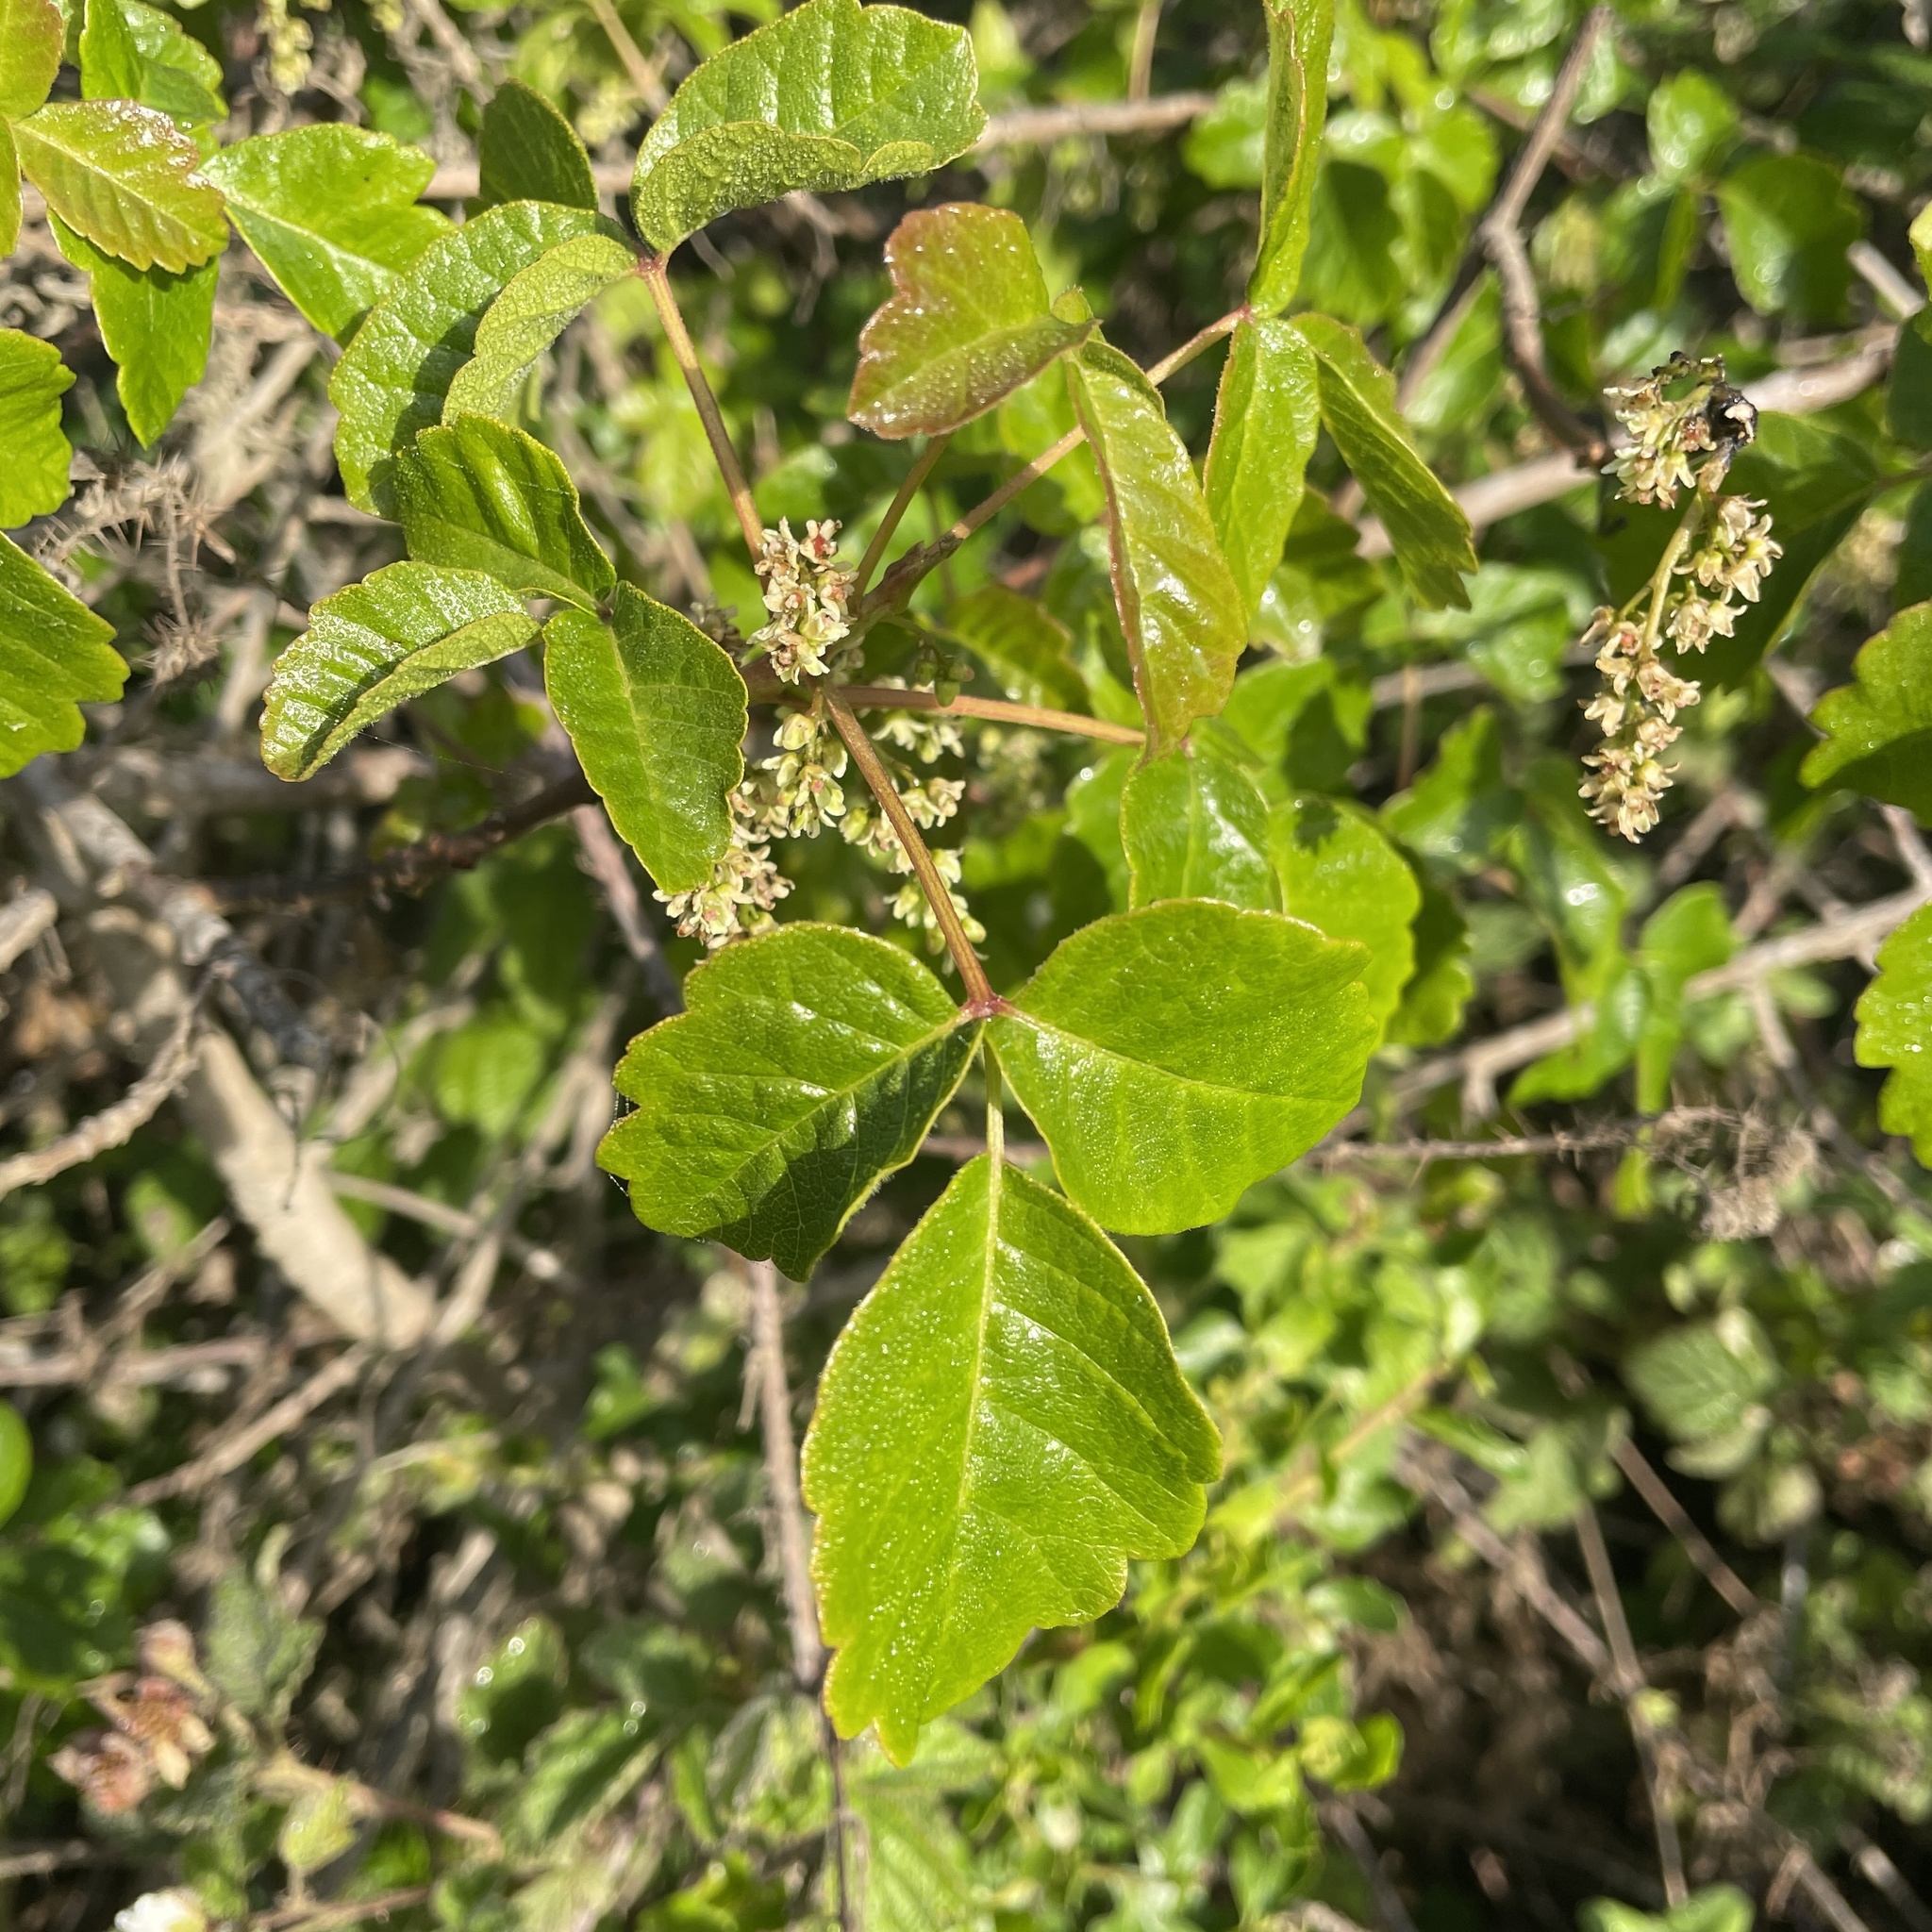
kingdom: Plantae
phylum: Tracheophyta
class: Magnoliopsida
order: Sapindales
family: Anacardiaceae
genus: Toxicodendron
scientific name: Toxicodendron diversilobum
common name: Pacific poison-oak
